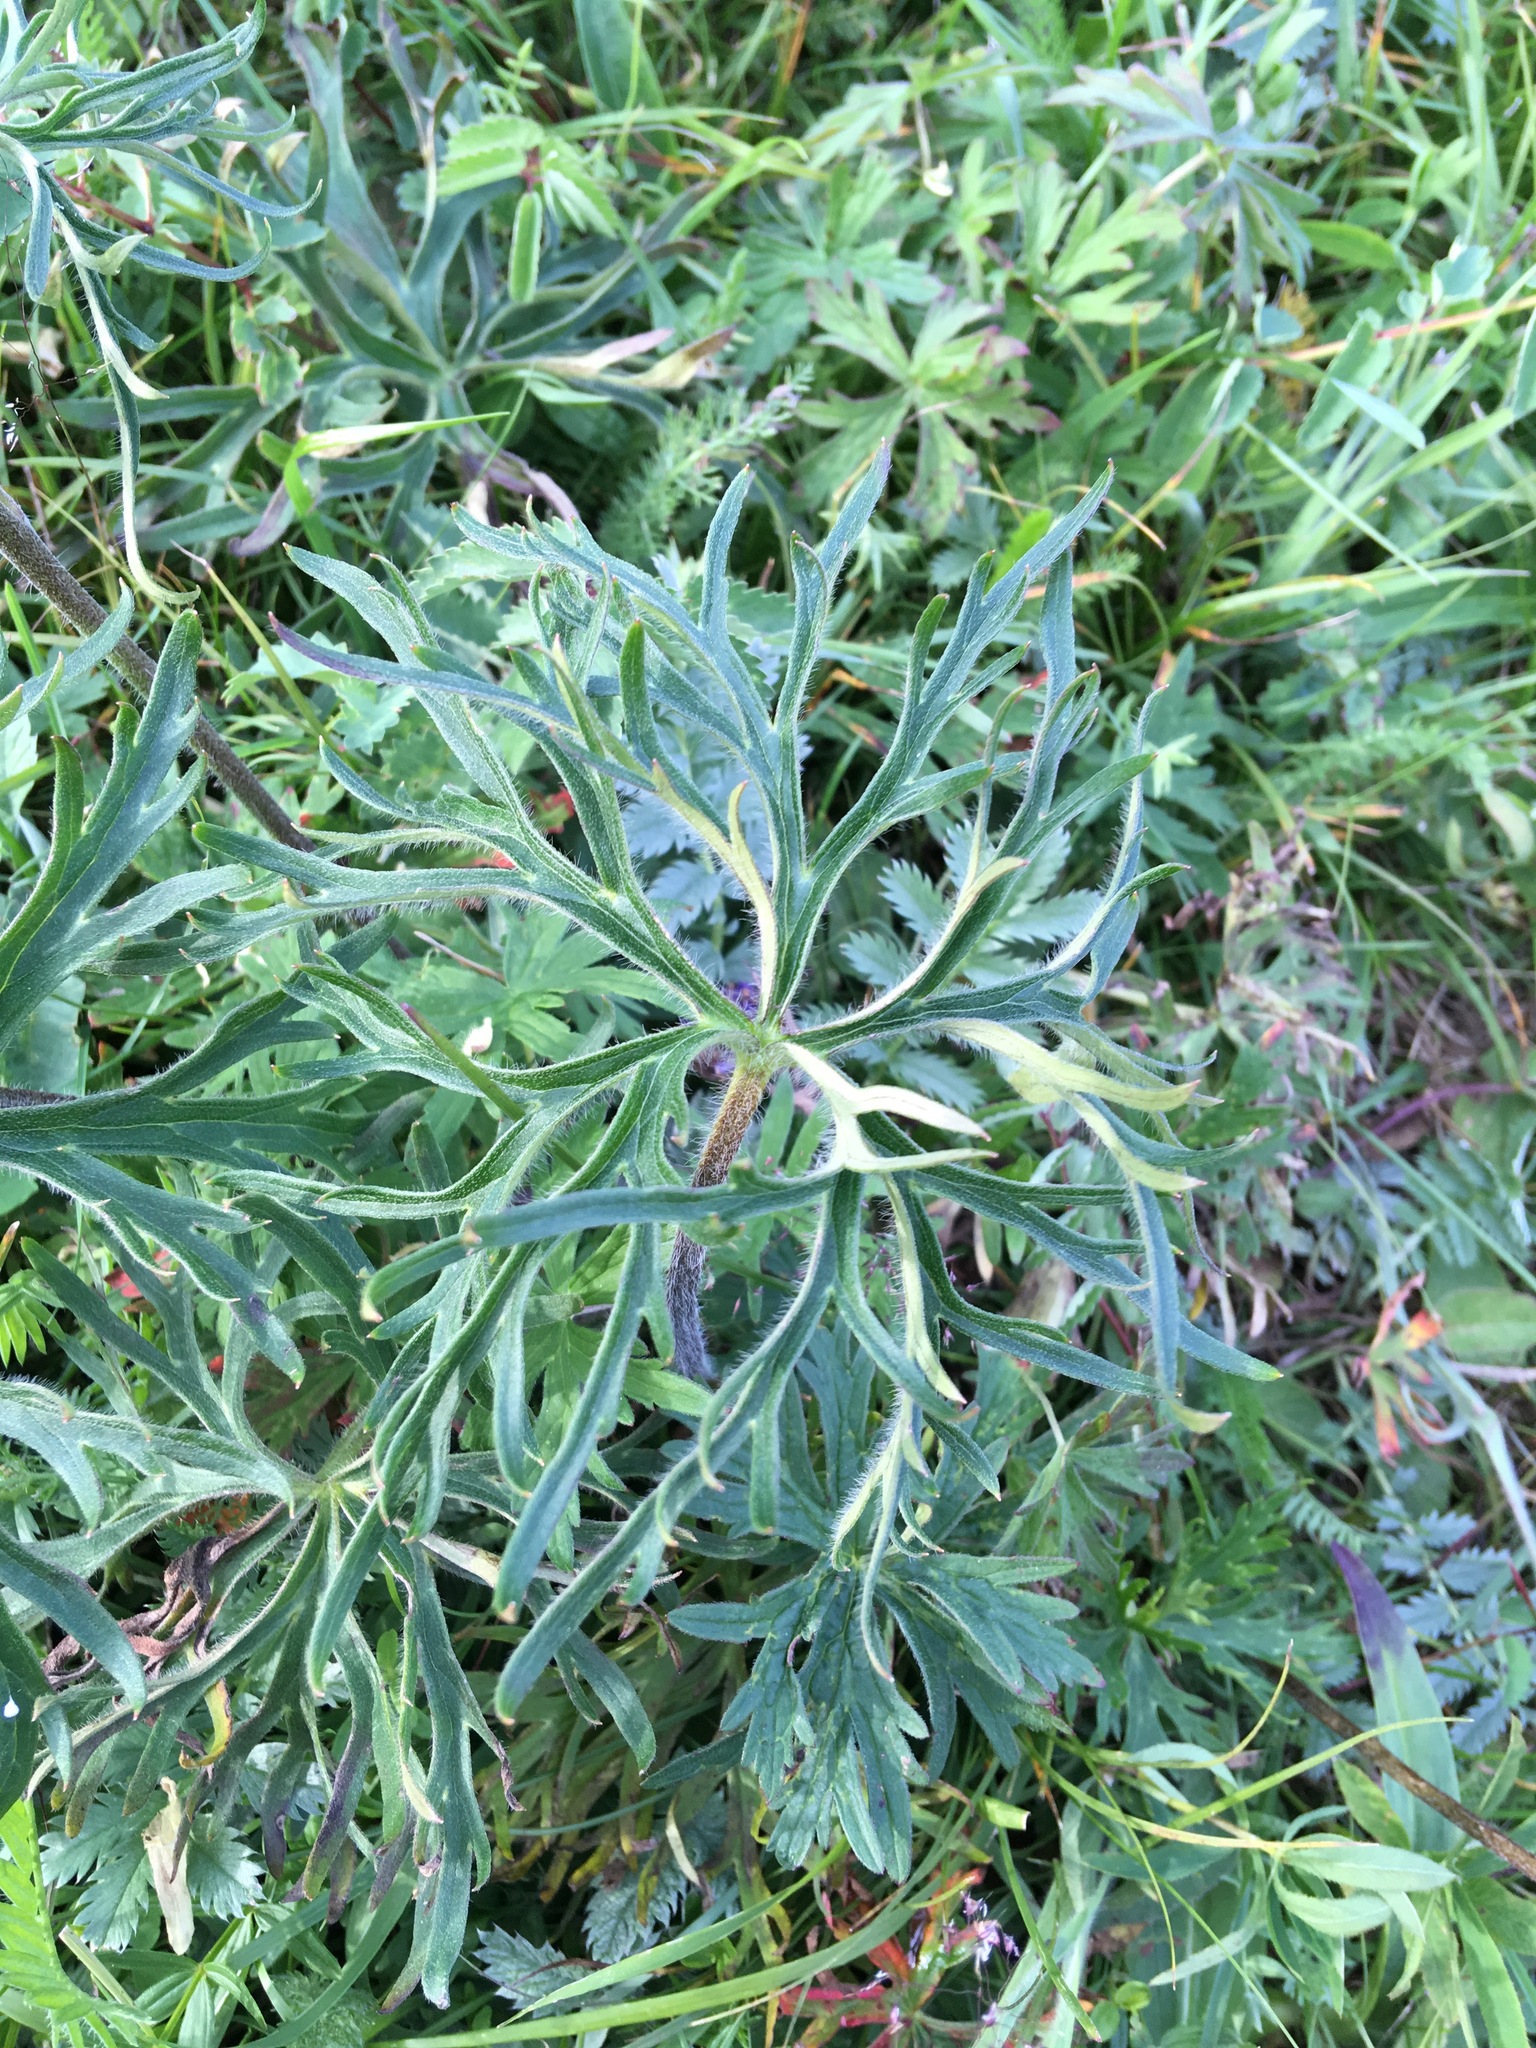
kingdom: Plantae
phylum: Tracheophyta
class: Magnoliopsida
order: Ranunculales
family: Ranunculaceae
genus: Aconitum
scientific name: Aconitum barbatum
